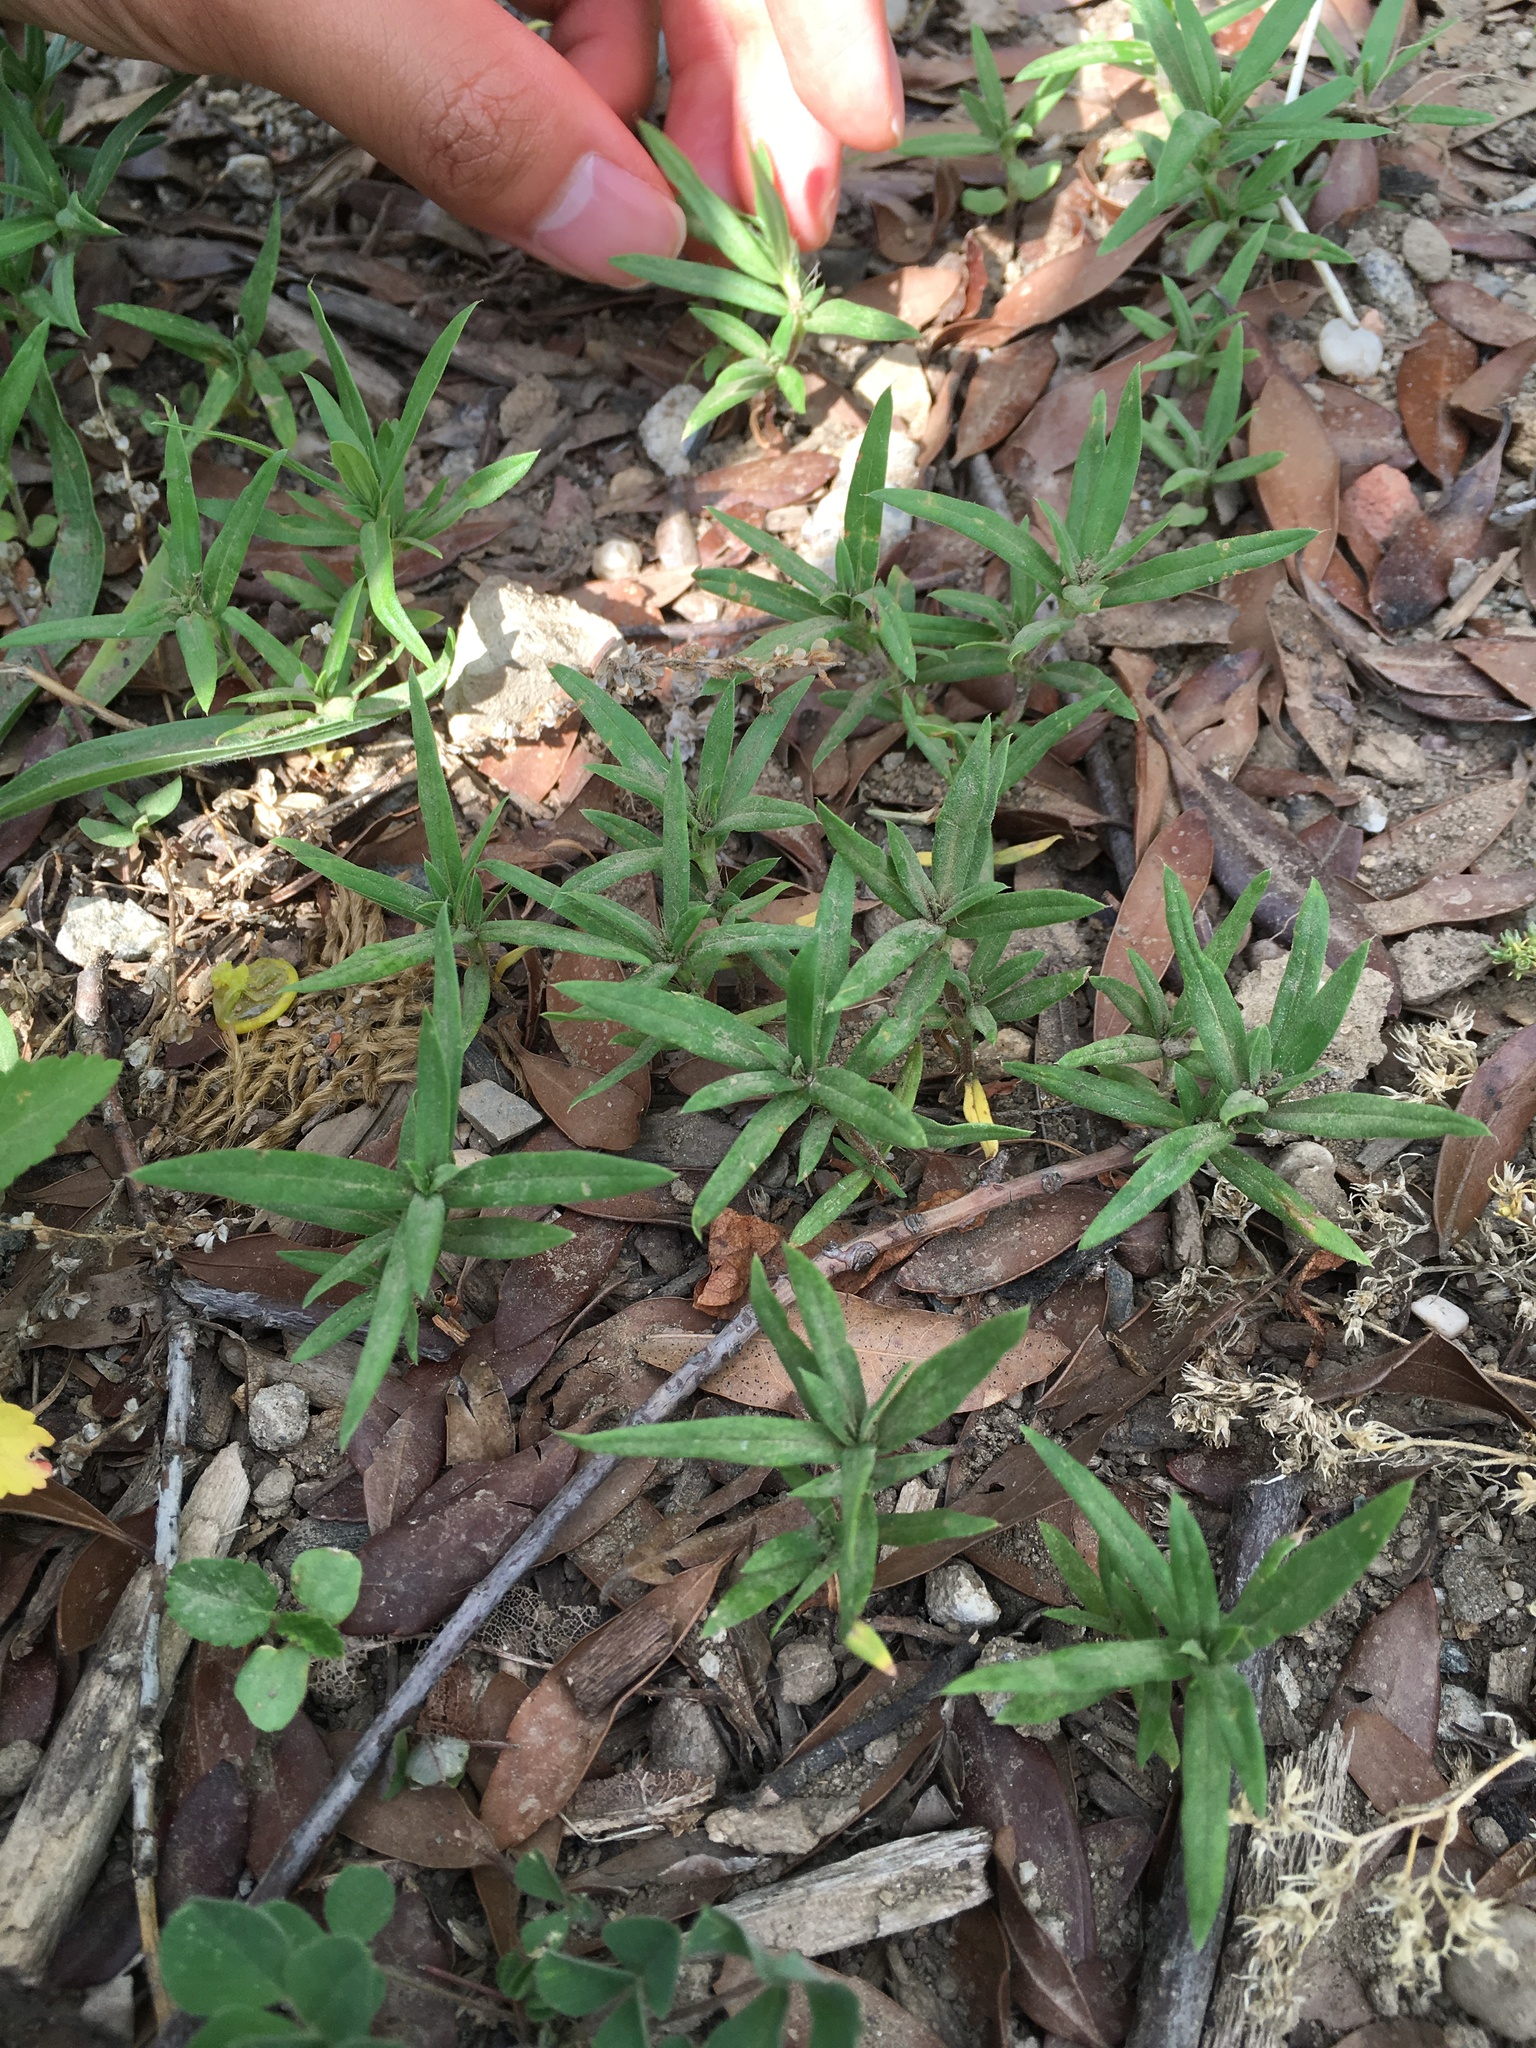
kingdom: Plantae
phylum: Tracheophyta
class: Magnoliopsida
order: Gentianales
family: Rubiaceae
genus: Hexasepalum
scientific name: Hexasepalum teres
